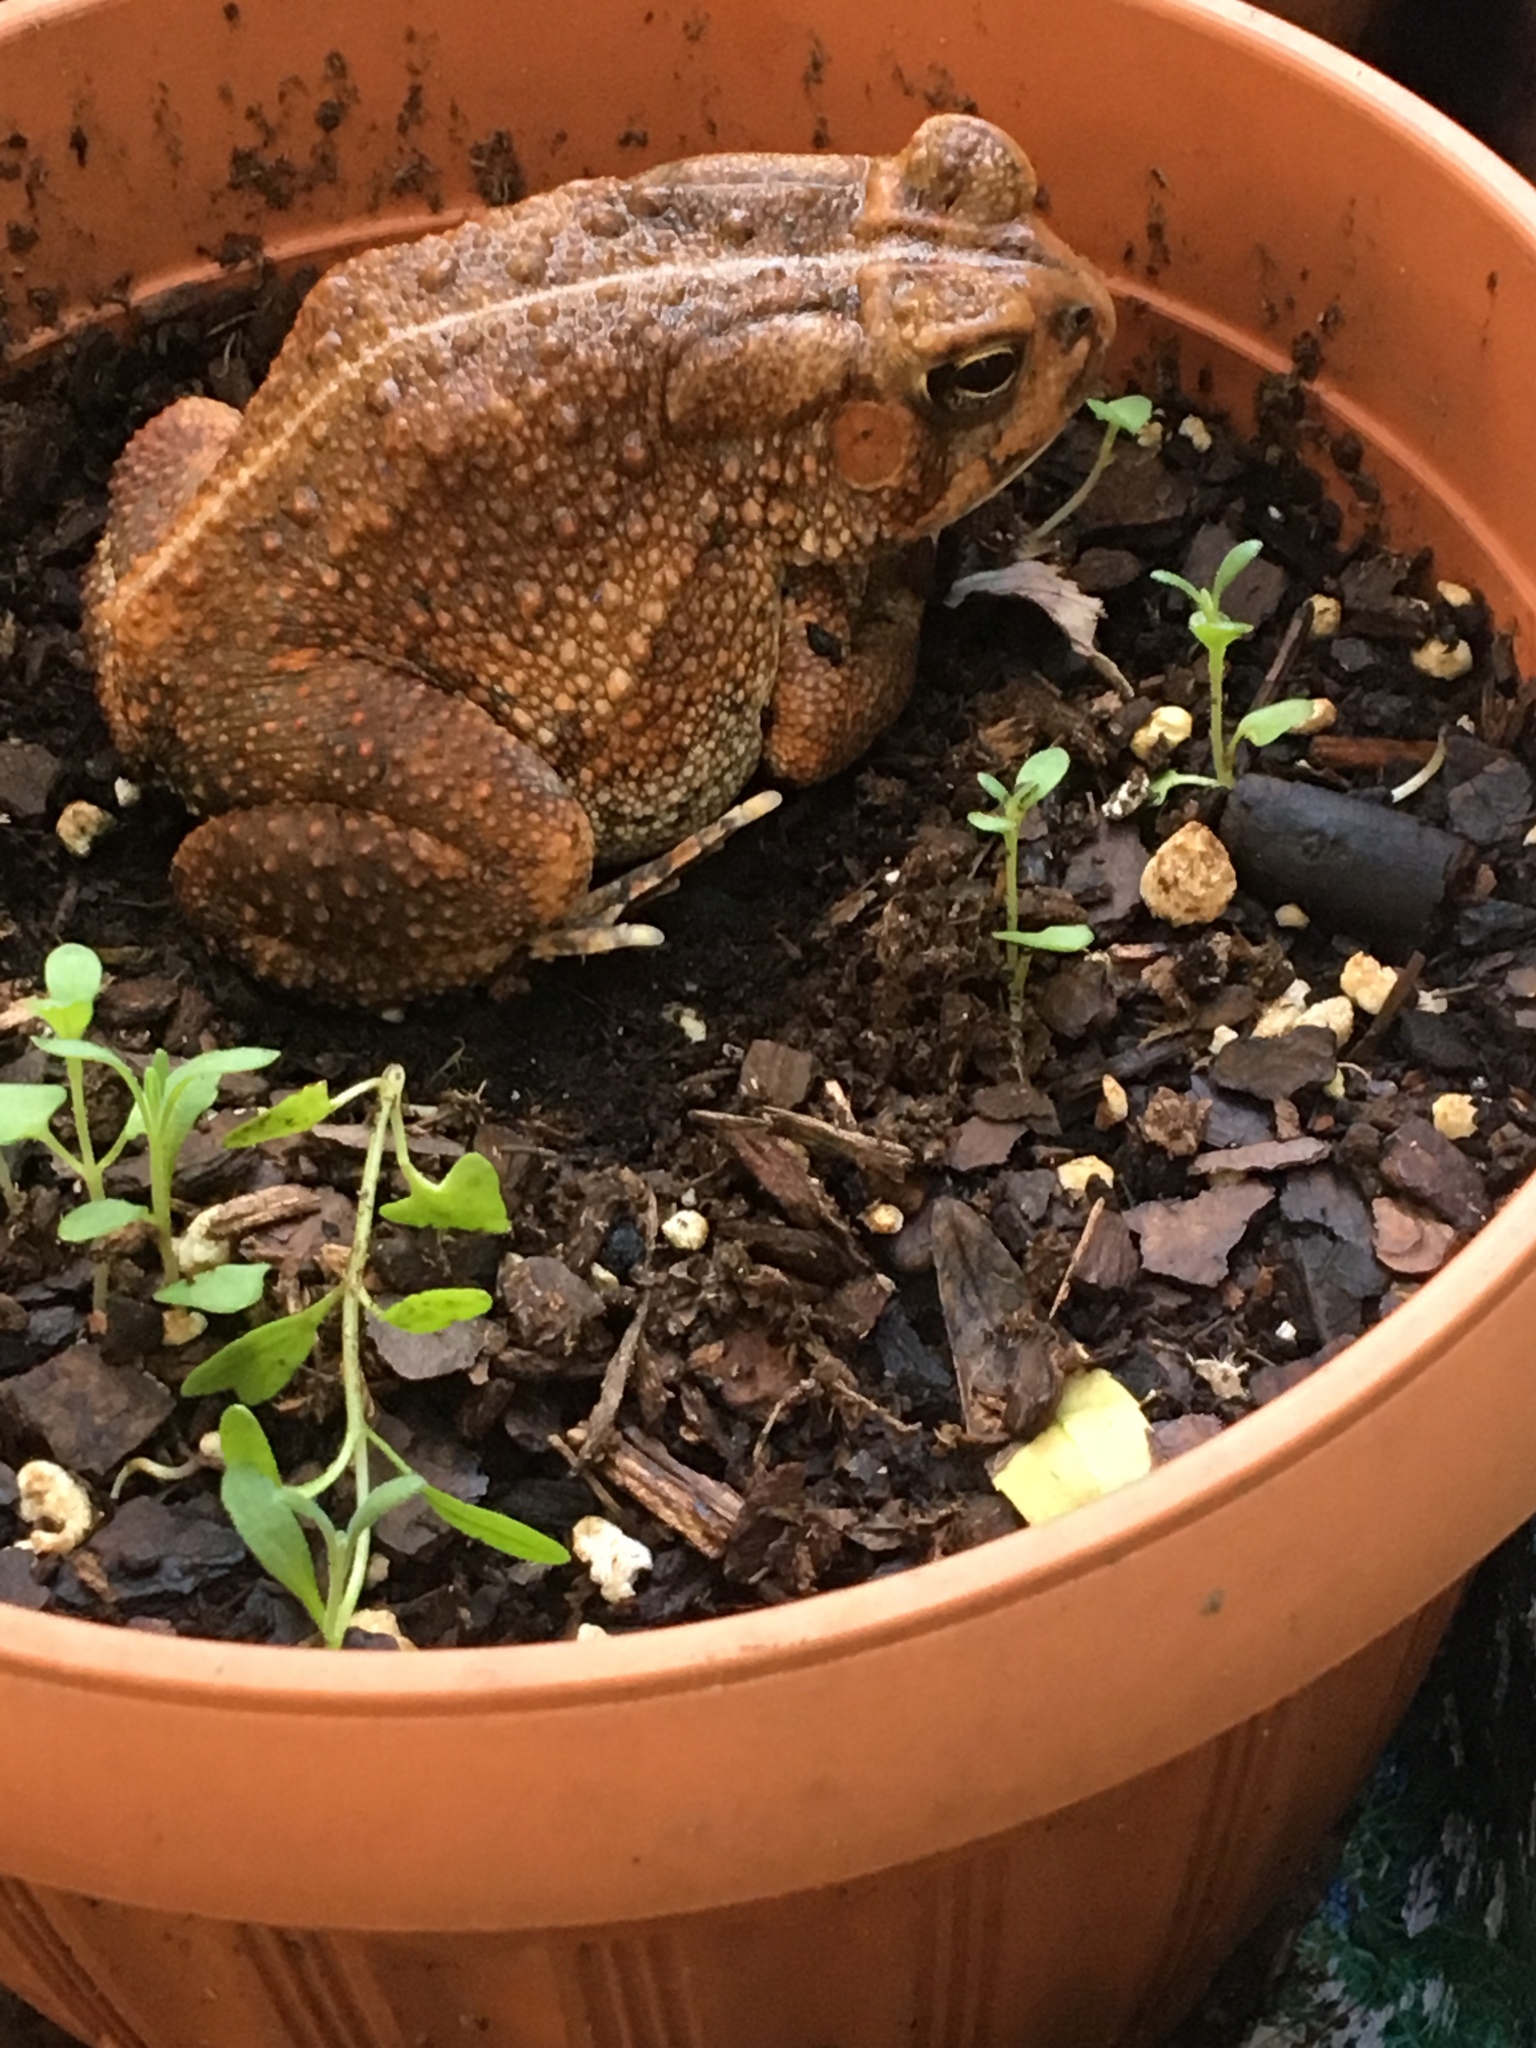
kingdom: Animalia
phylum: Chordata
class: Amphibia
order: Anura
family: Bufonidae
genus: Anaxyrus
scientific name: Anaxyrus fowleri
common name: Fowler's toad
